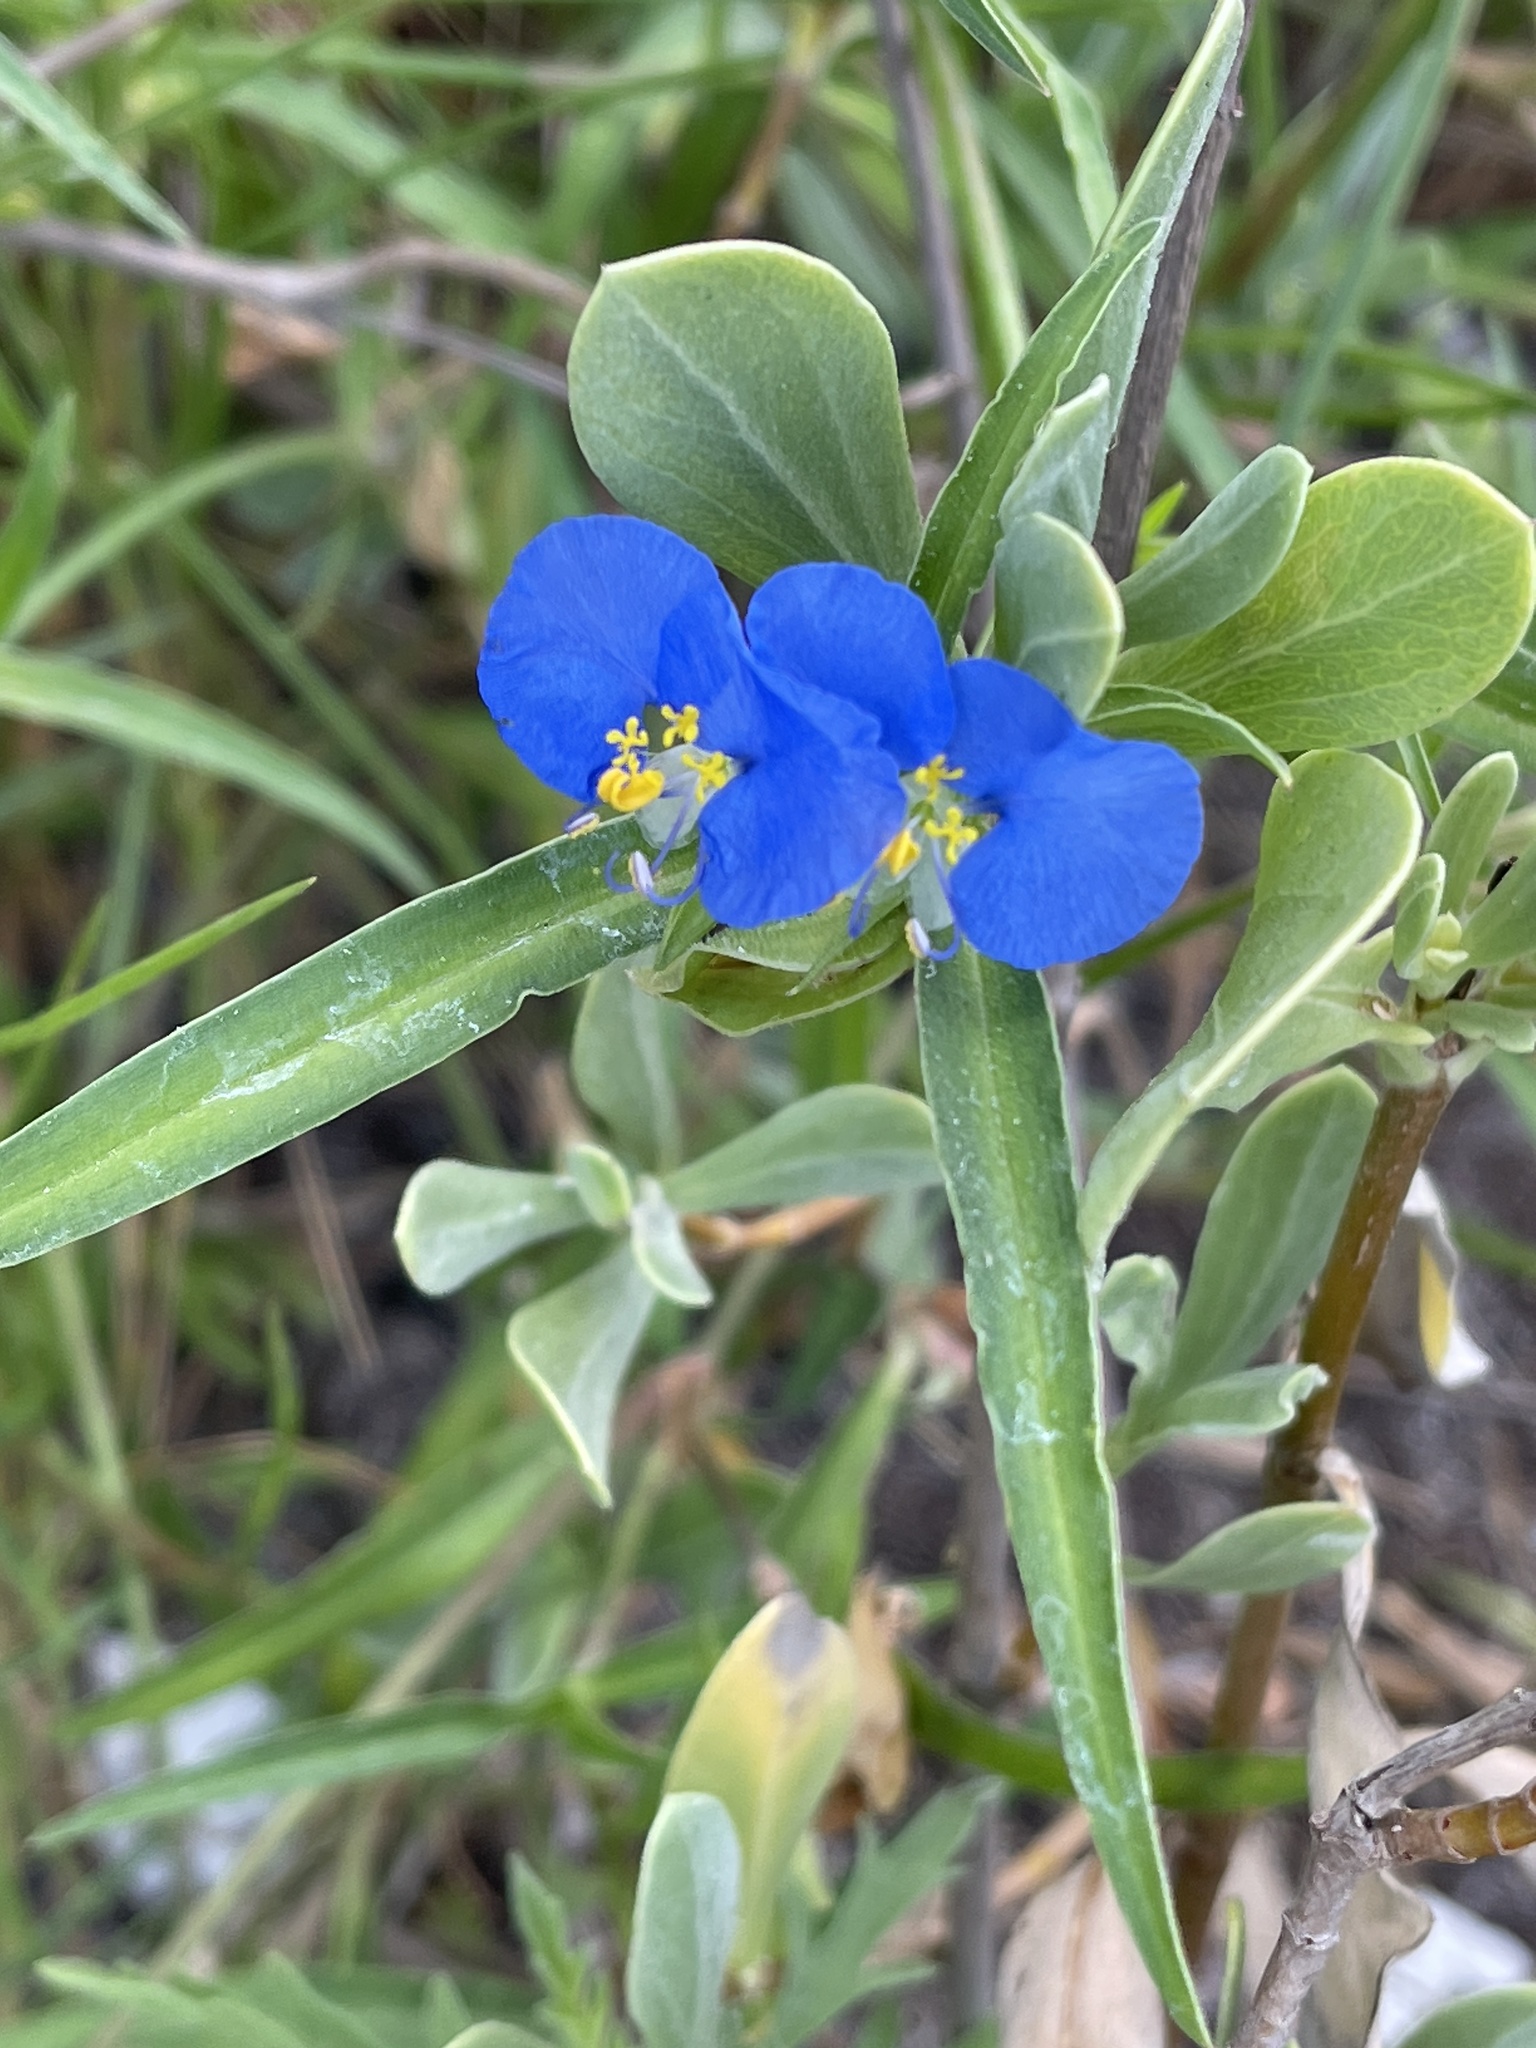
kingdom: Plantae
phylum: Tracheophyta
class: Liliopsida
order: Commelinales
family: Commelinaceae
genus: Commelina
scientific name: Commelina erecta
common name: Blousel blommetjie
